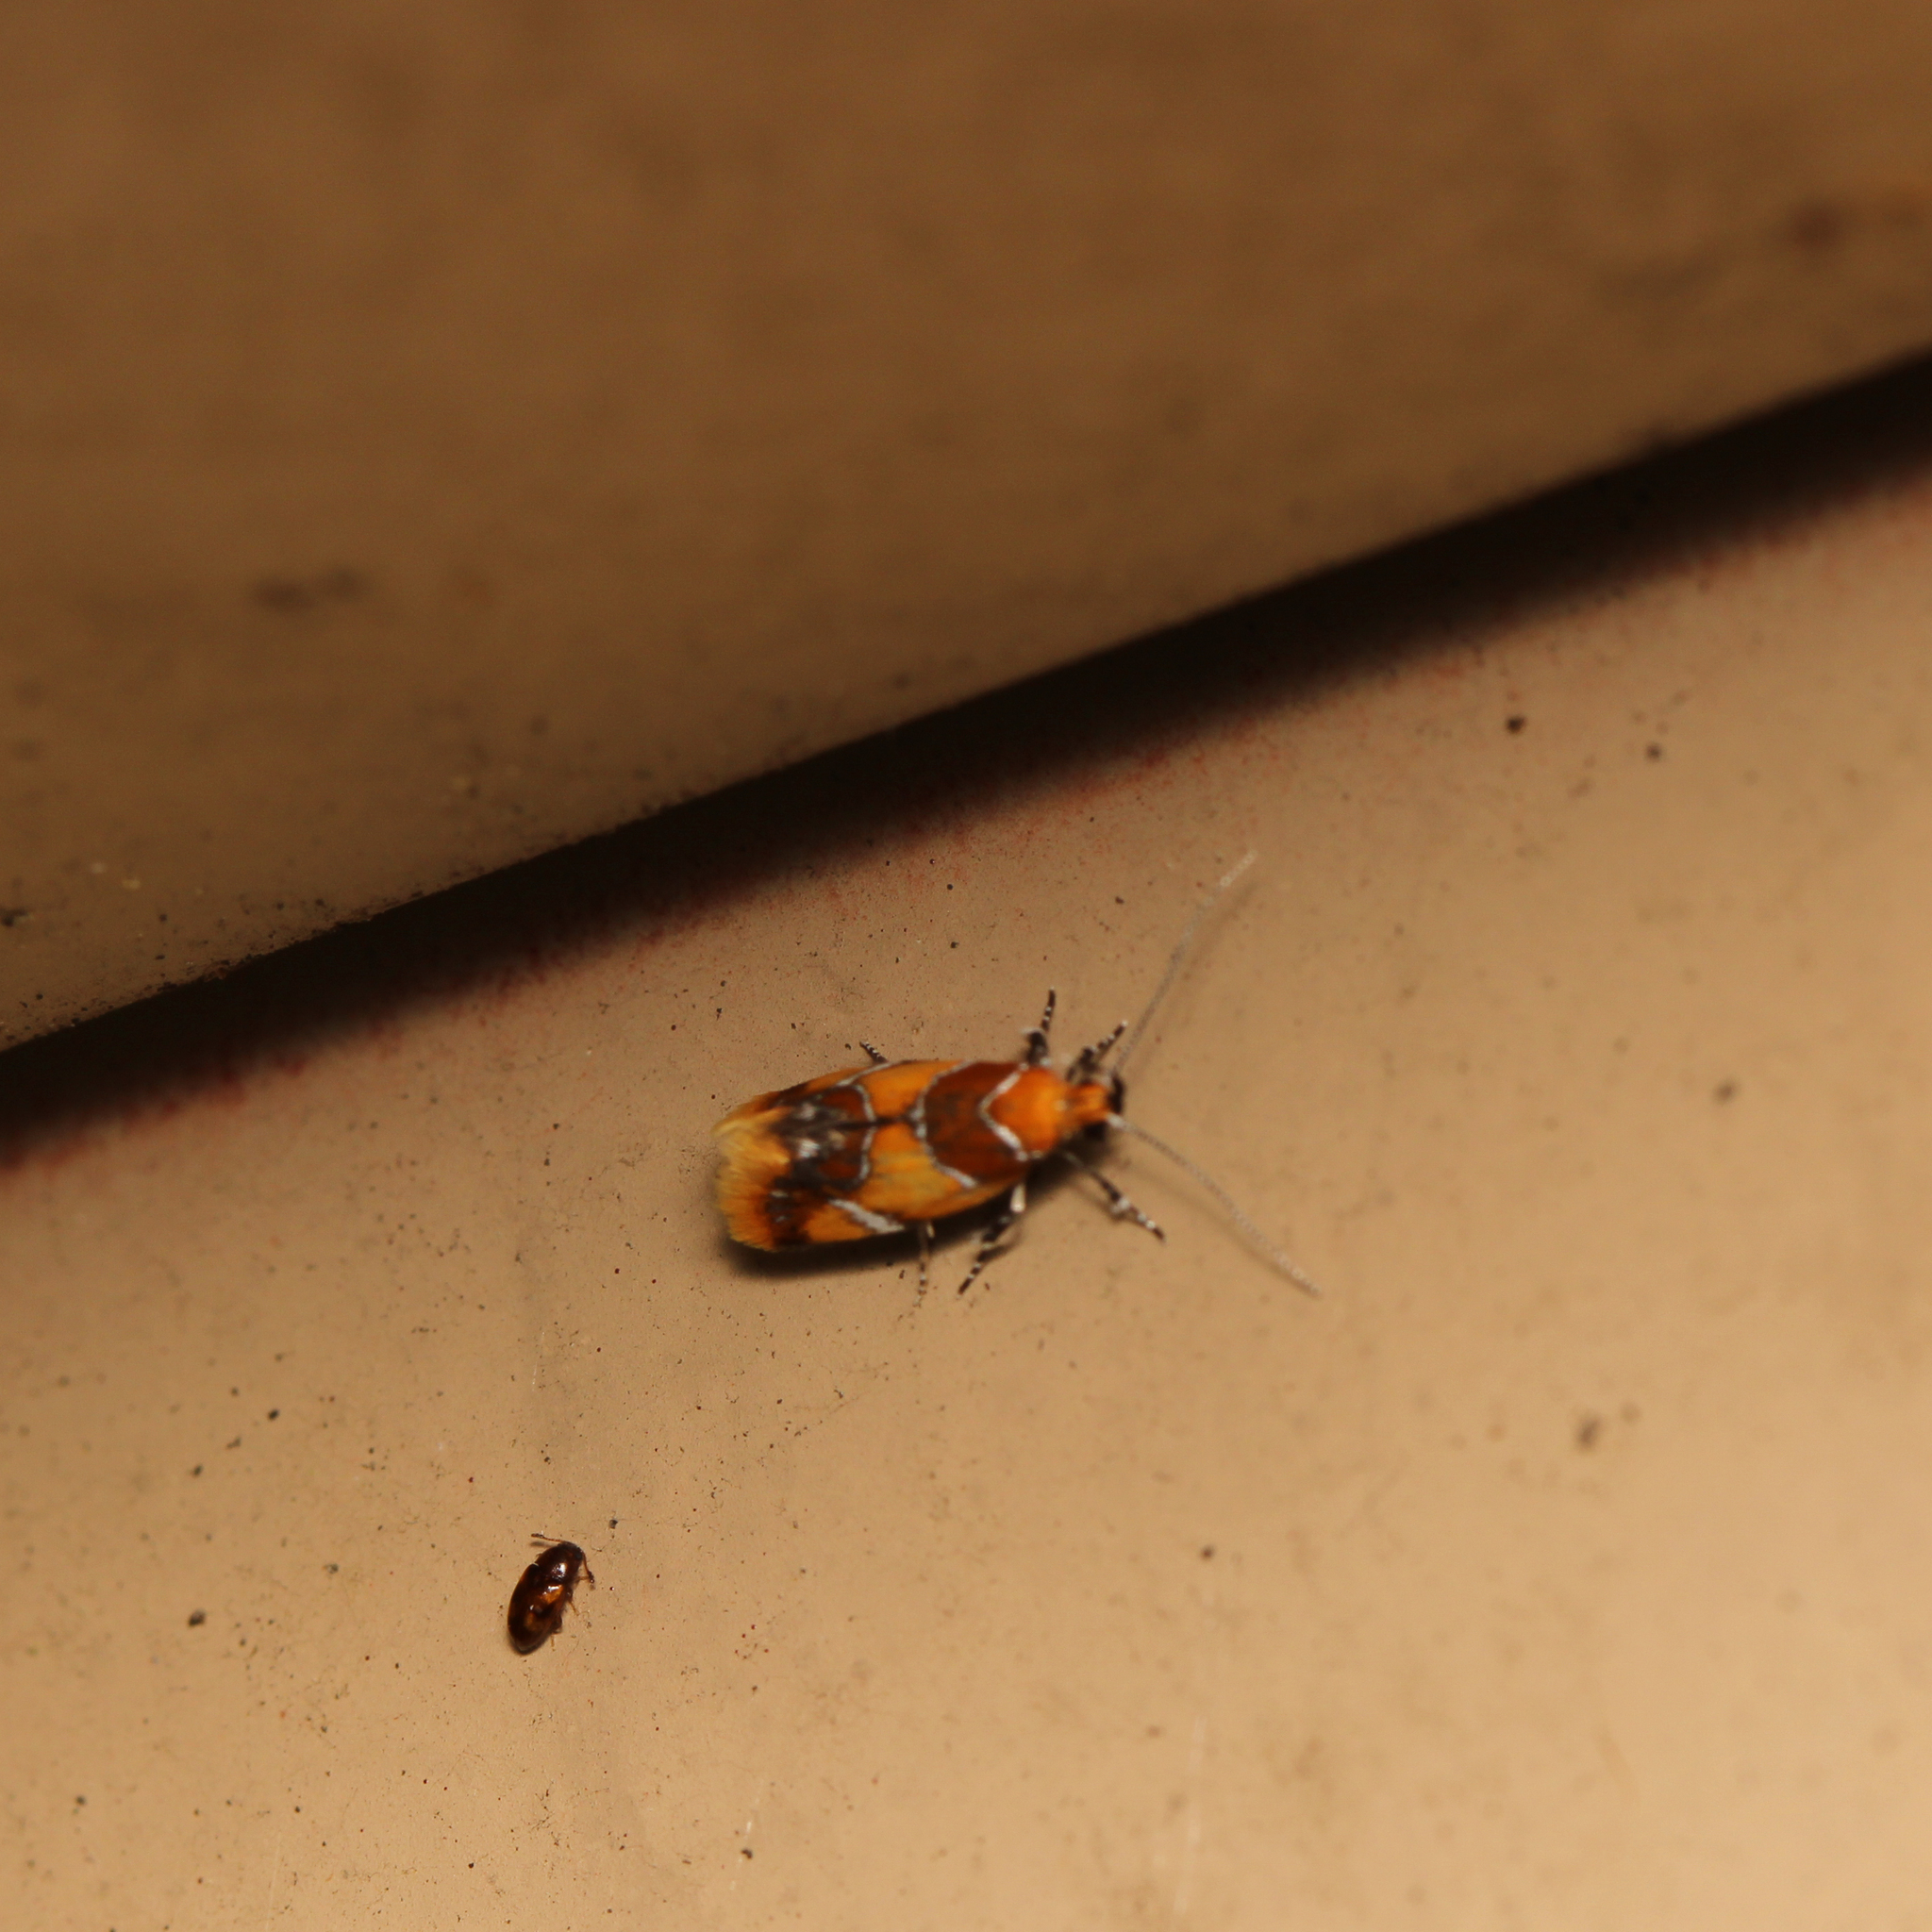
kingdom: Animalia
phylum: Arthropoda
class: Insecta
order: Lepidoptera
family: Oecophoridae
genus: Callima
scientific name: Callima argenticinctella
